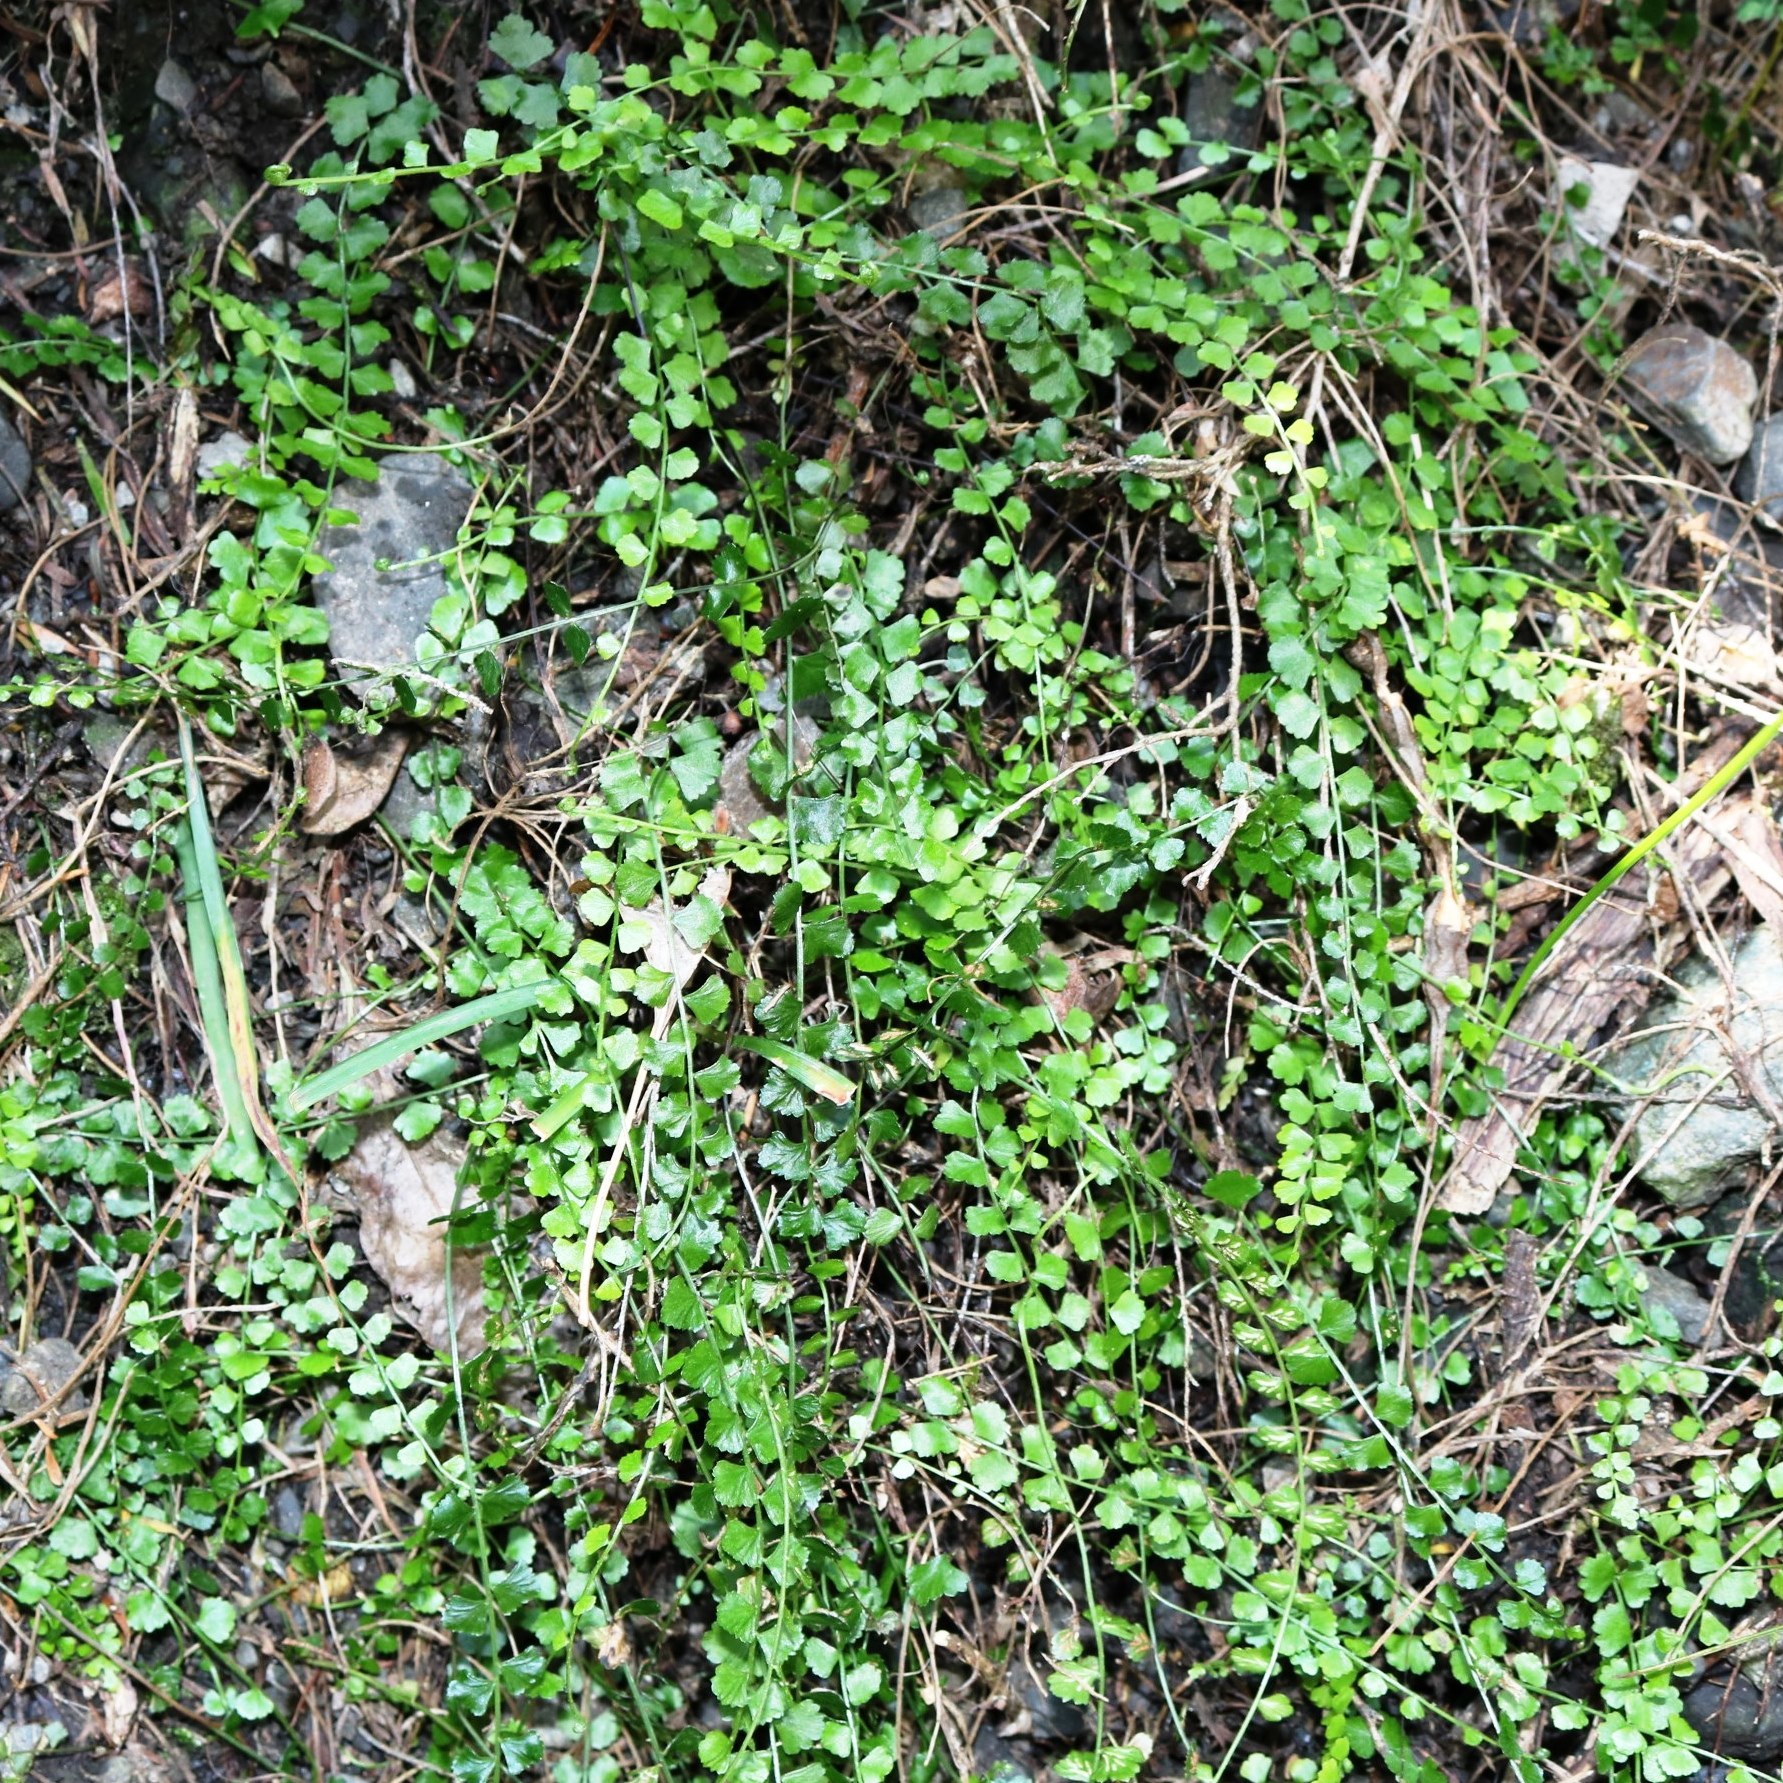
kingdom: Plantae
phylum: Tracheophyta
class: Polypodiopsida
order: Polypodiales
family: Aspleniaceae
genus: Asplenium
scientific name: Asplenium flabellifolium
